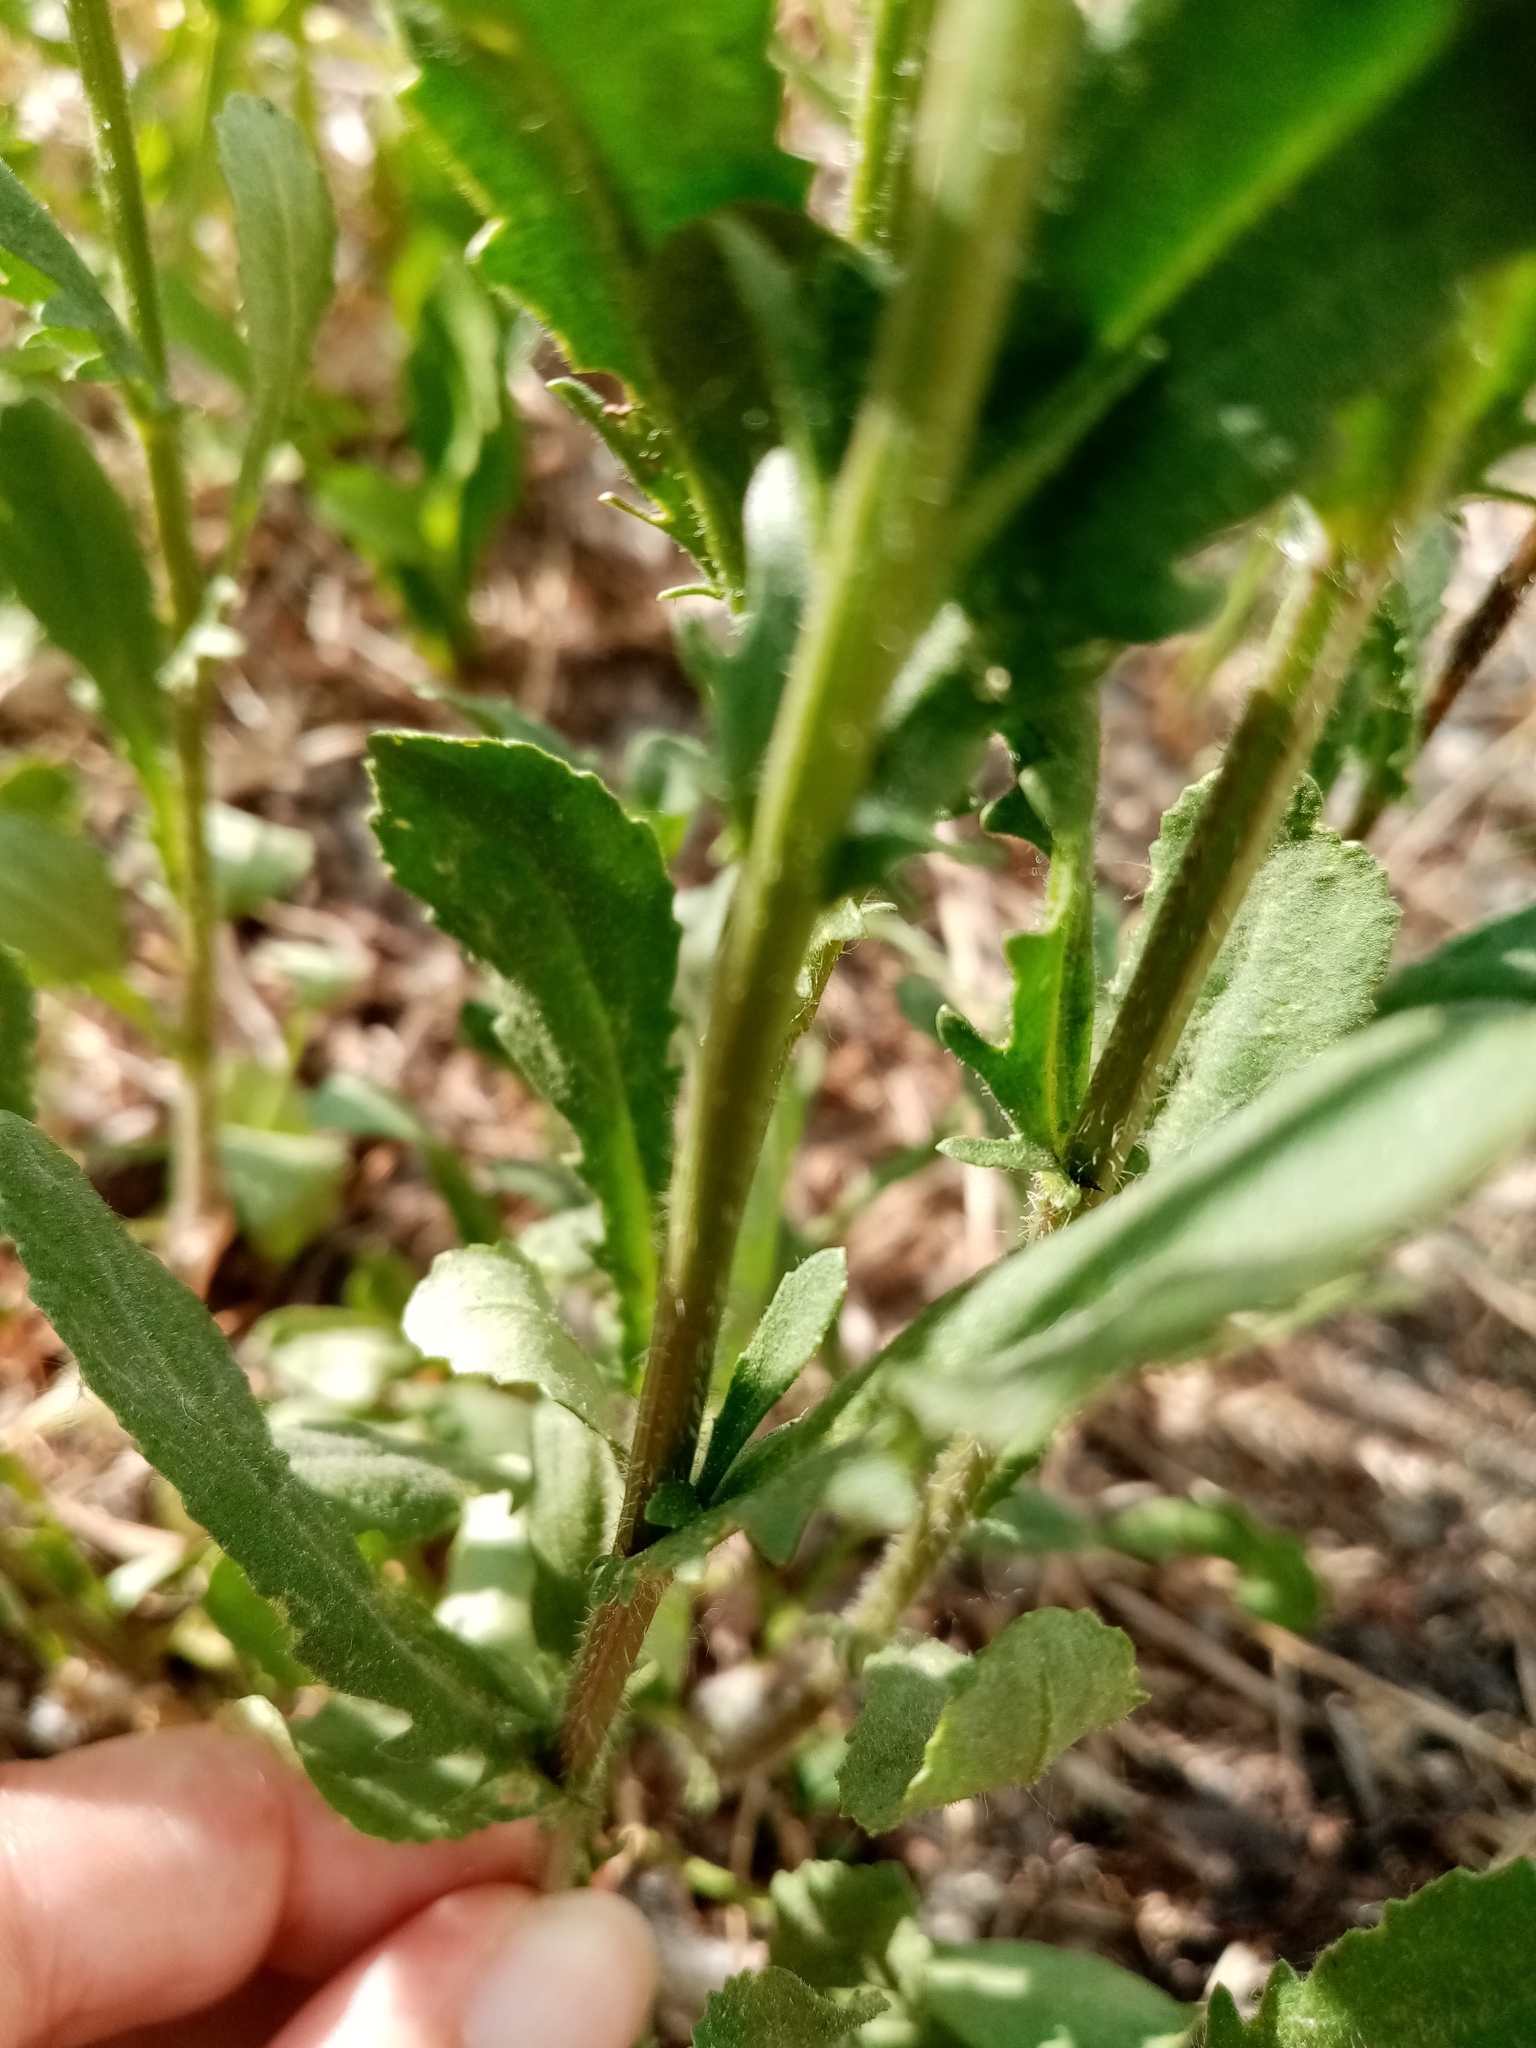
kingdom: Plantae
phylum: Tracheophyta
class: Magnoliopsida
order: Asterales
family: Asteraceae
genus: Leucanthemum
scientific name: Leucanthemum vulgare
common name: Oxeye daisy
